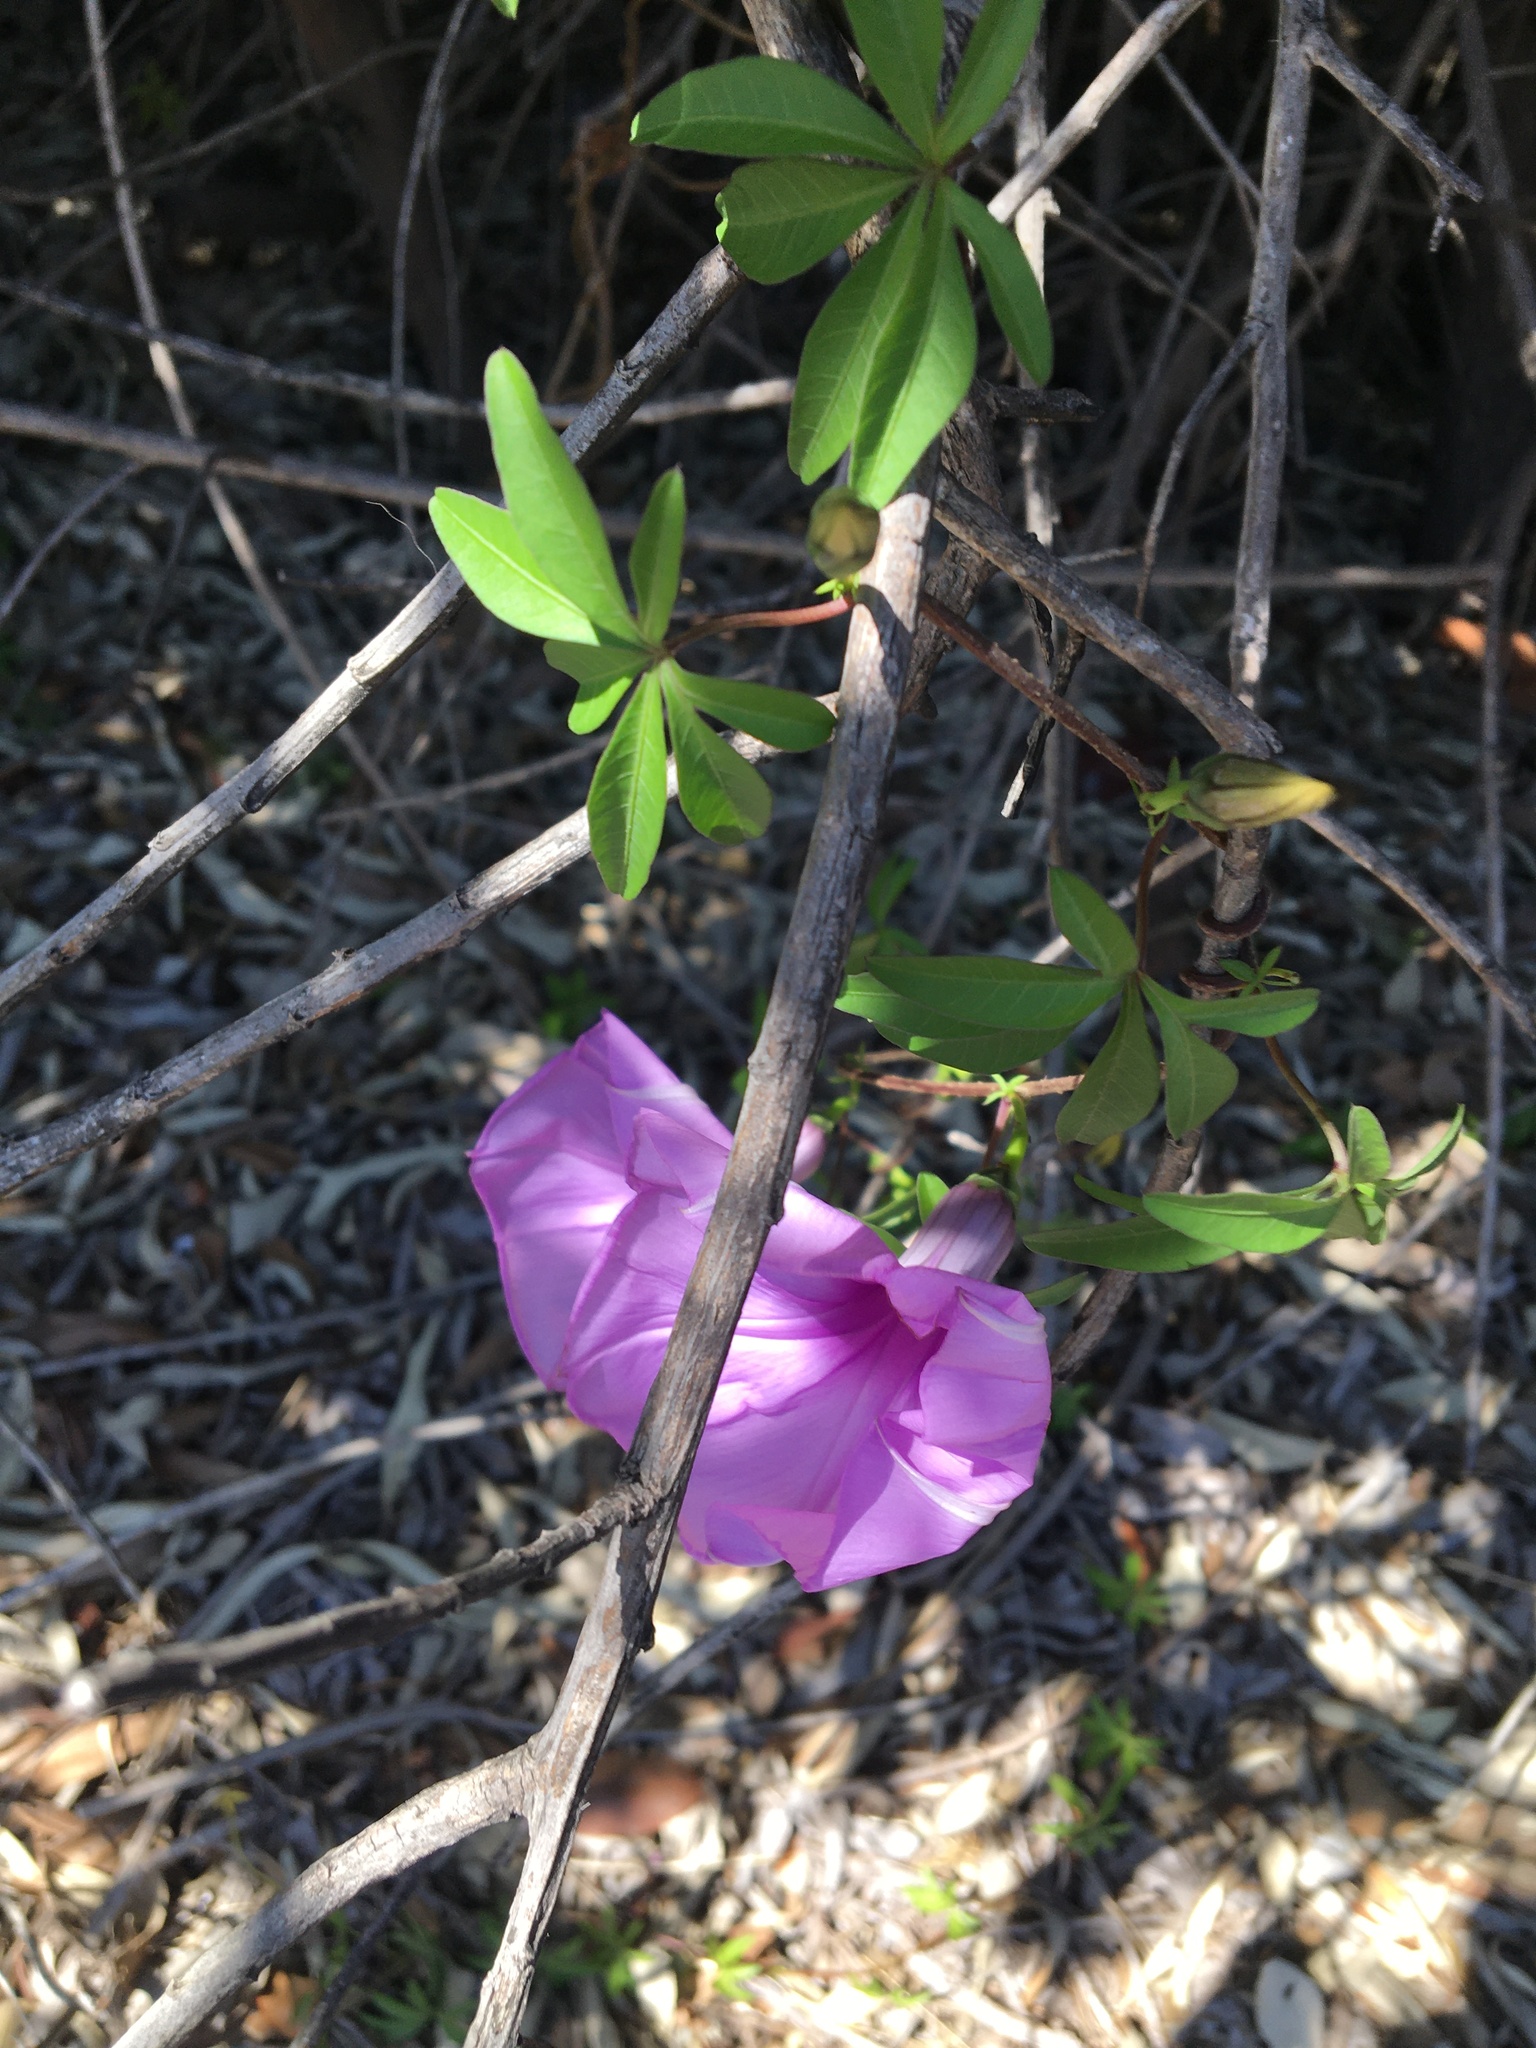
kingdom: Plantae
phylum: Tracheophyta
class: Magnoliopsida
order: Solanales
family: Convolvulaceae
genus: Ipomoea
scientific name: Ipomoea cairica
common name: Mile a minute vine
